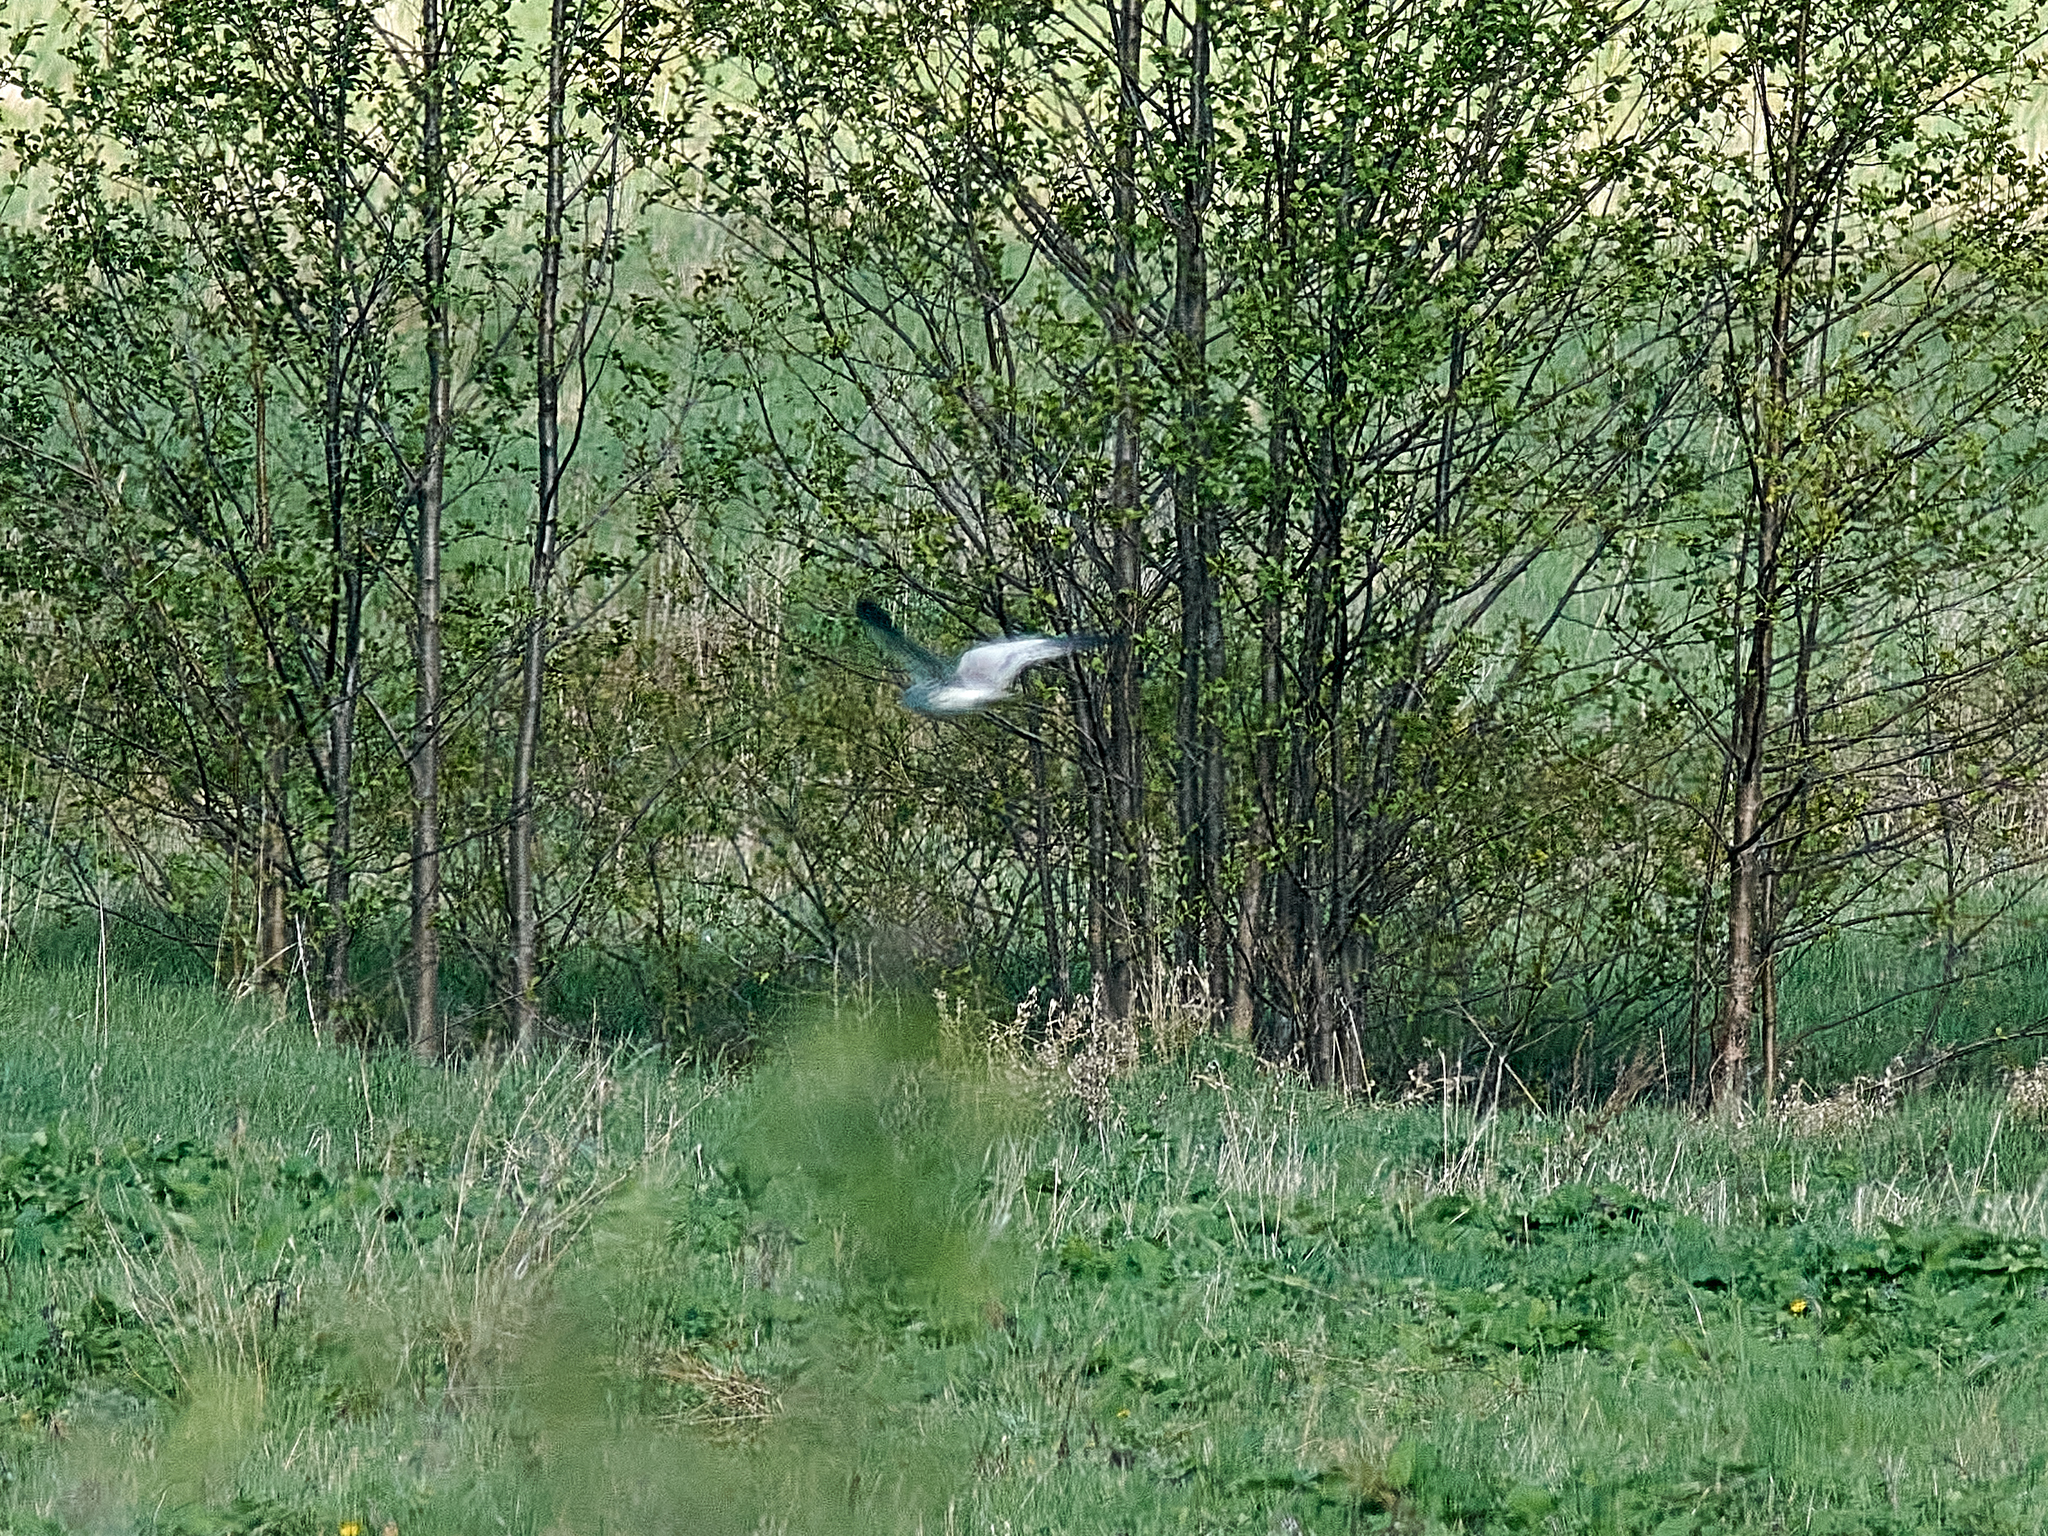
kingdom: Animalia
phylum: Chordata
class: Aves
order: Accipitriformes
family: Accipitridae
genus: Circus
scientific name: Circus pygargus
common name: Montagu's harrier
